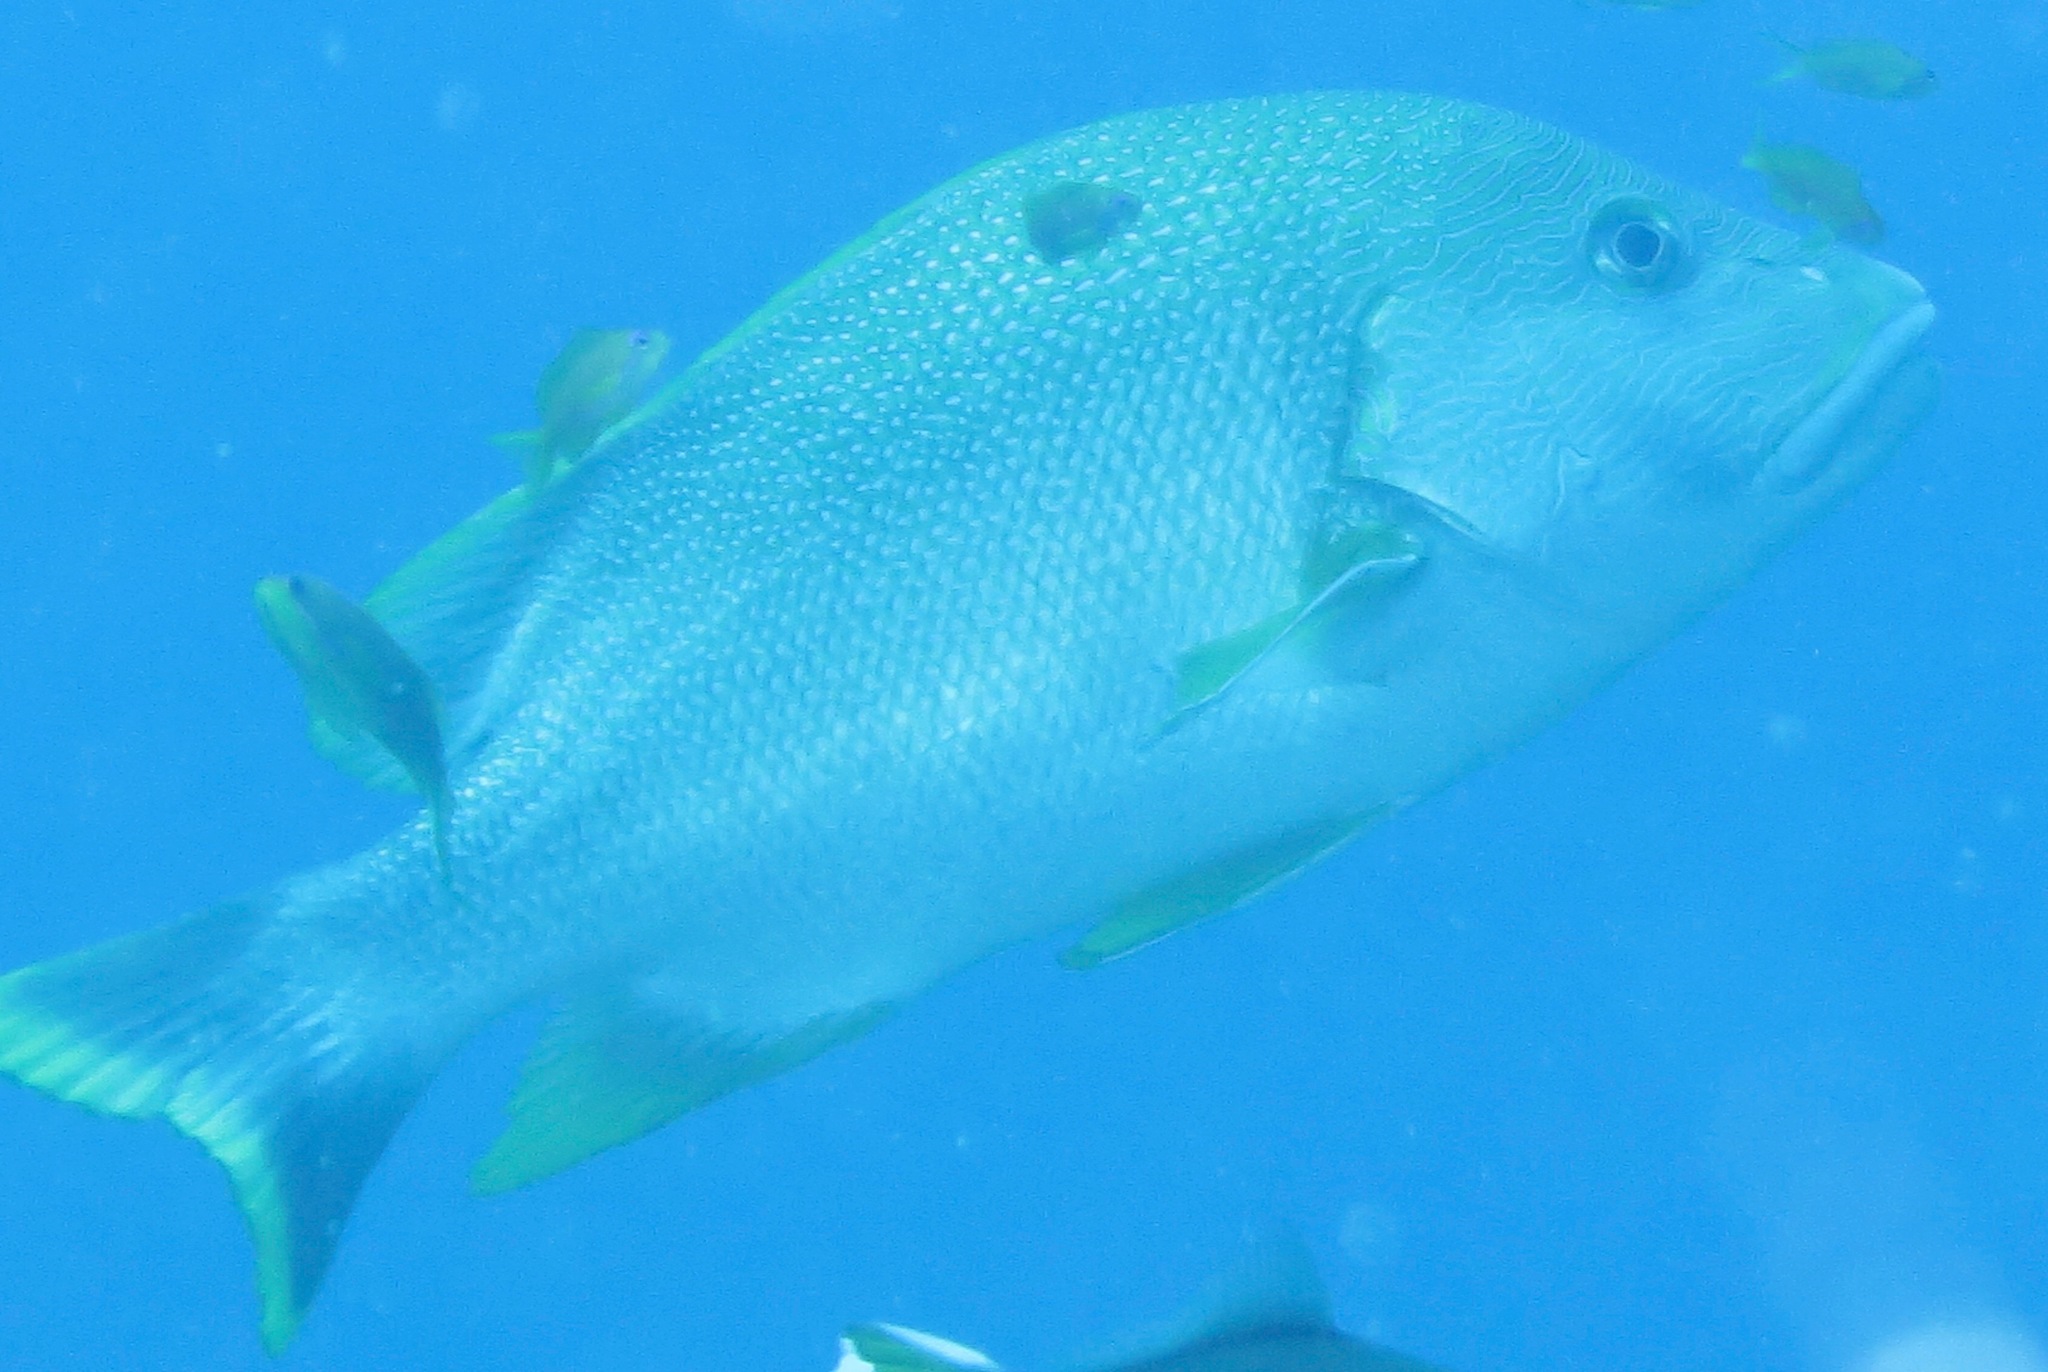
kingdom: Animalia
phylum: Chordata
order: Perciformes
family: Lutjanidae
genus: Lutjanus
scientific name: Lutjanus rivulatus
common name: Blubberlip snapper
